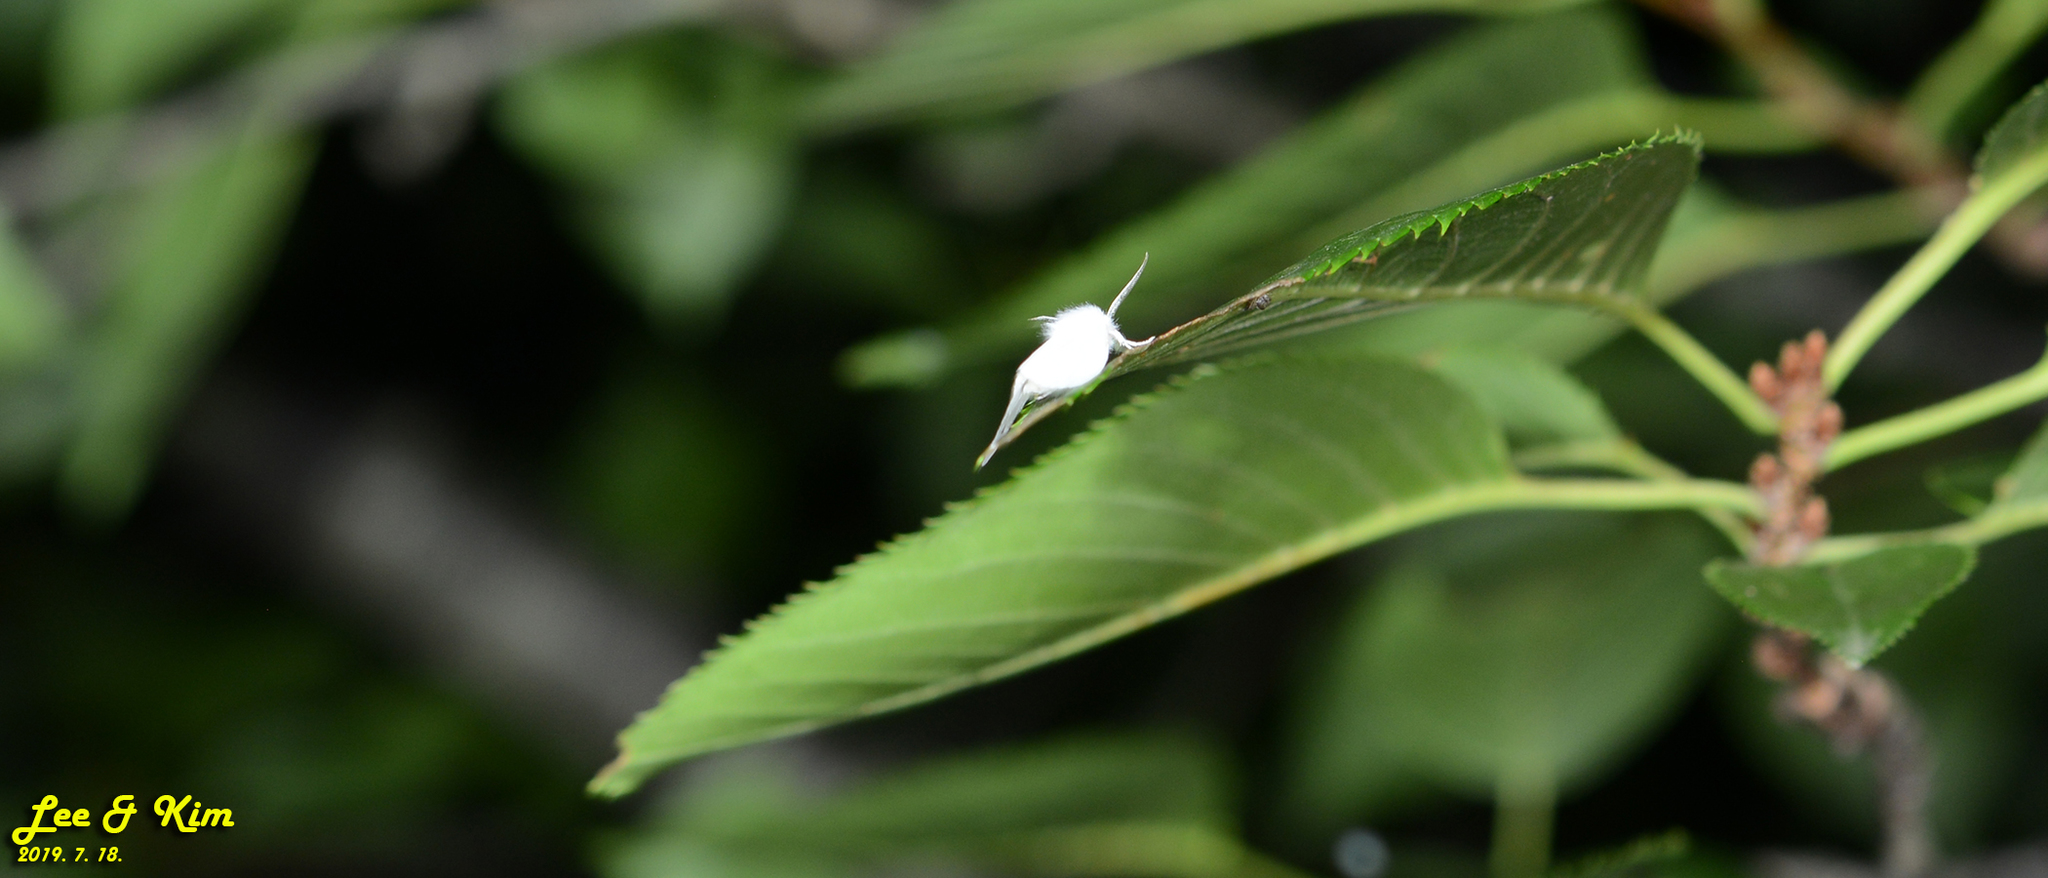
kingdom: Animalia
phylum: Arthropoda
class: Insecta
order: Lepidoptera
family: Erebidae
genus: Hyphantria
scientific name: Hyphantria cunea
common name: American white moth
